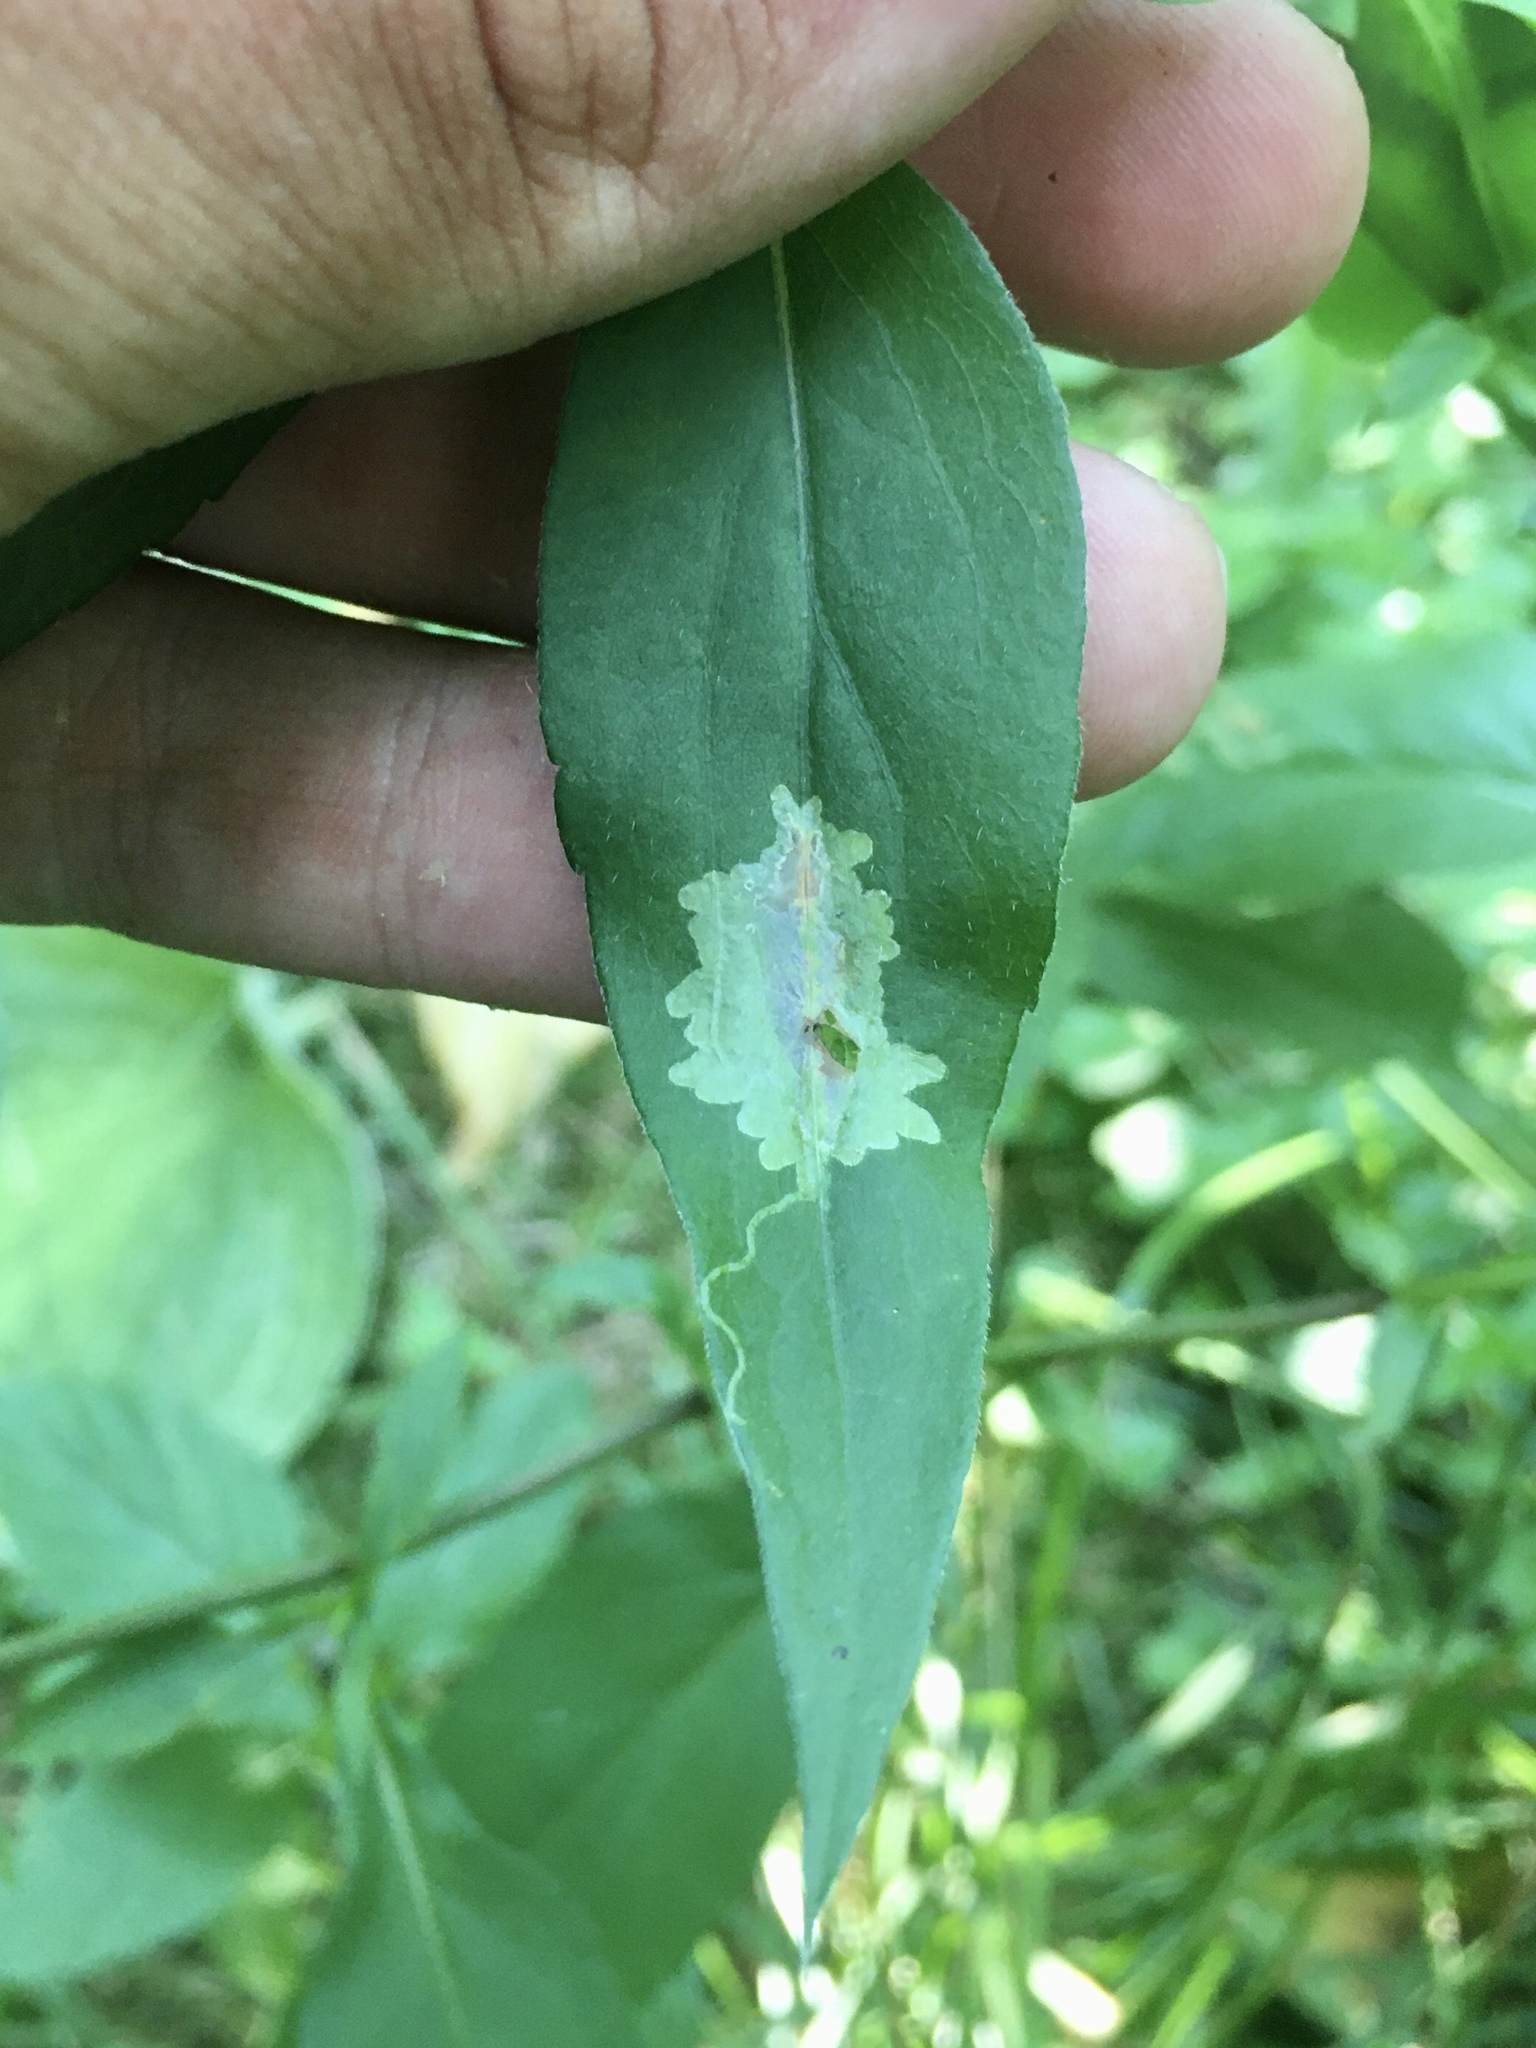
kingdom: Animalia
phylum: Arthropoda
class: Insecta
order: Diptera
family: Agromyzidae
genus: Calycomyza
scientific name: Calycomyza promissa
